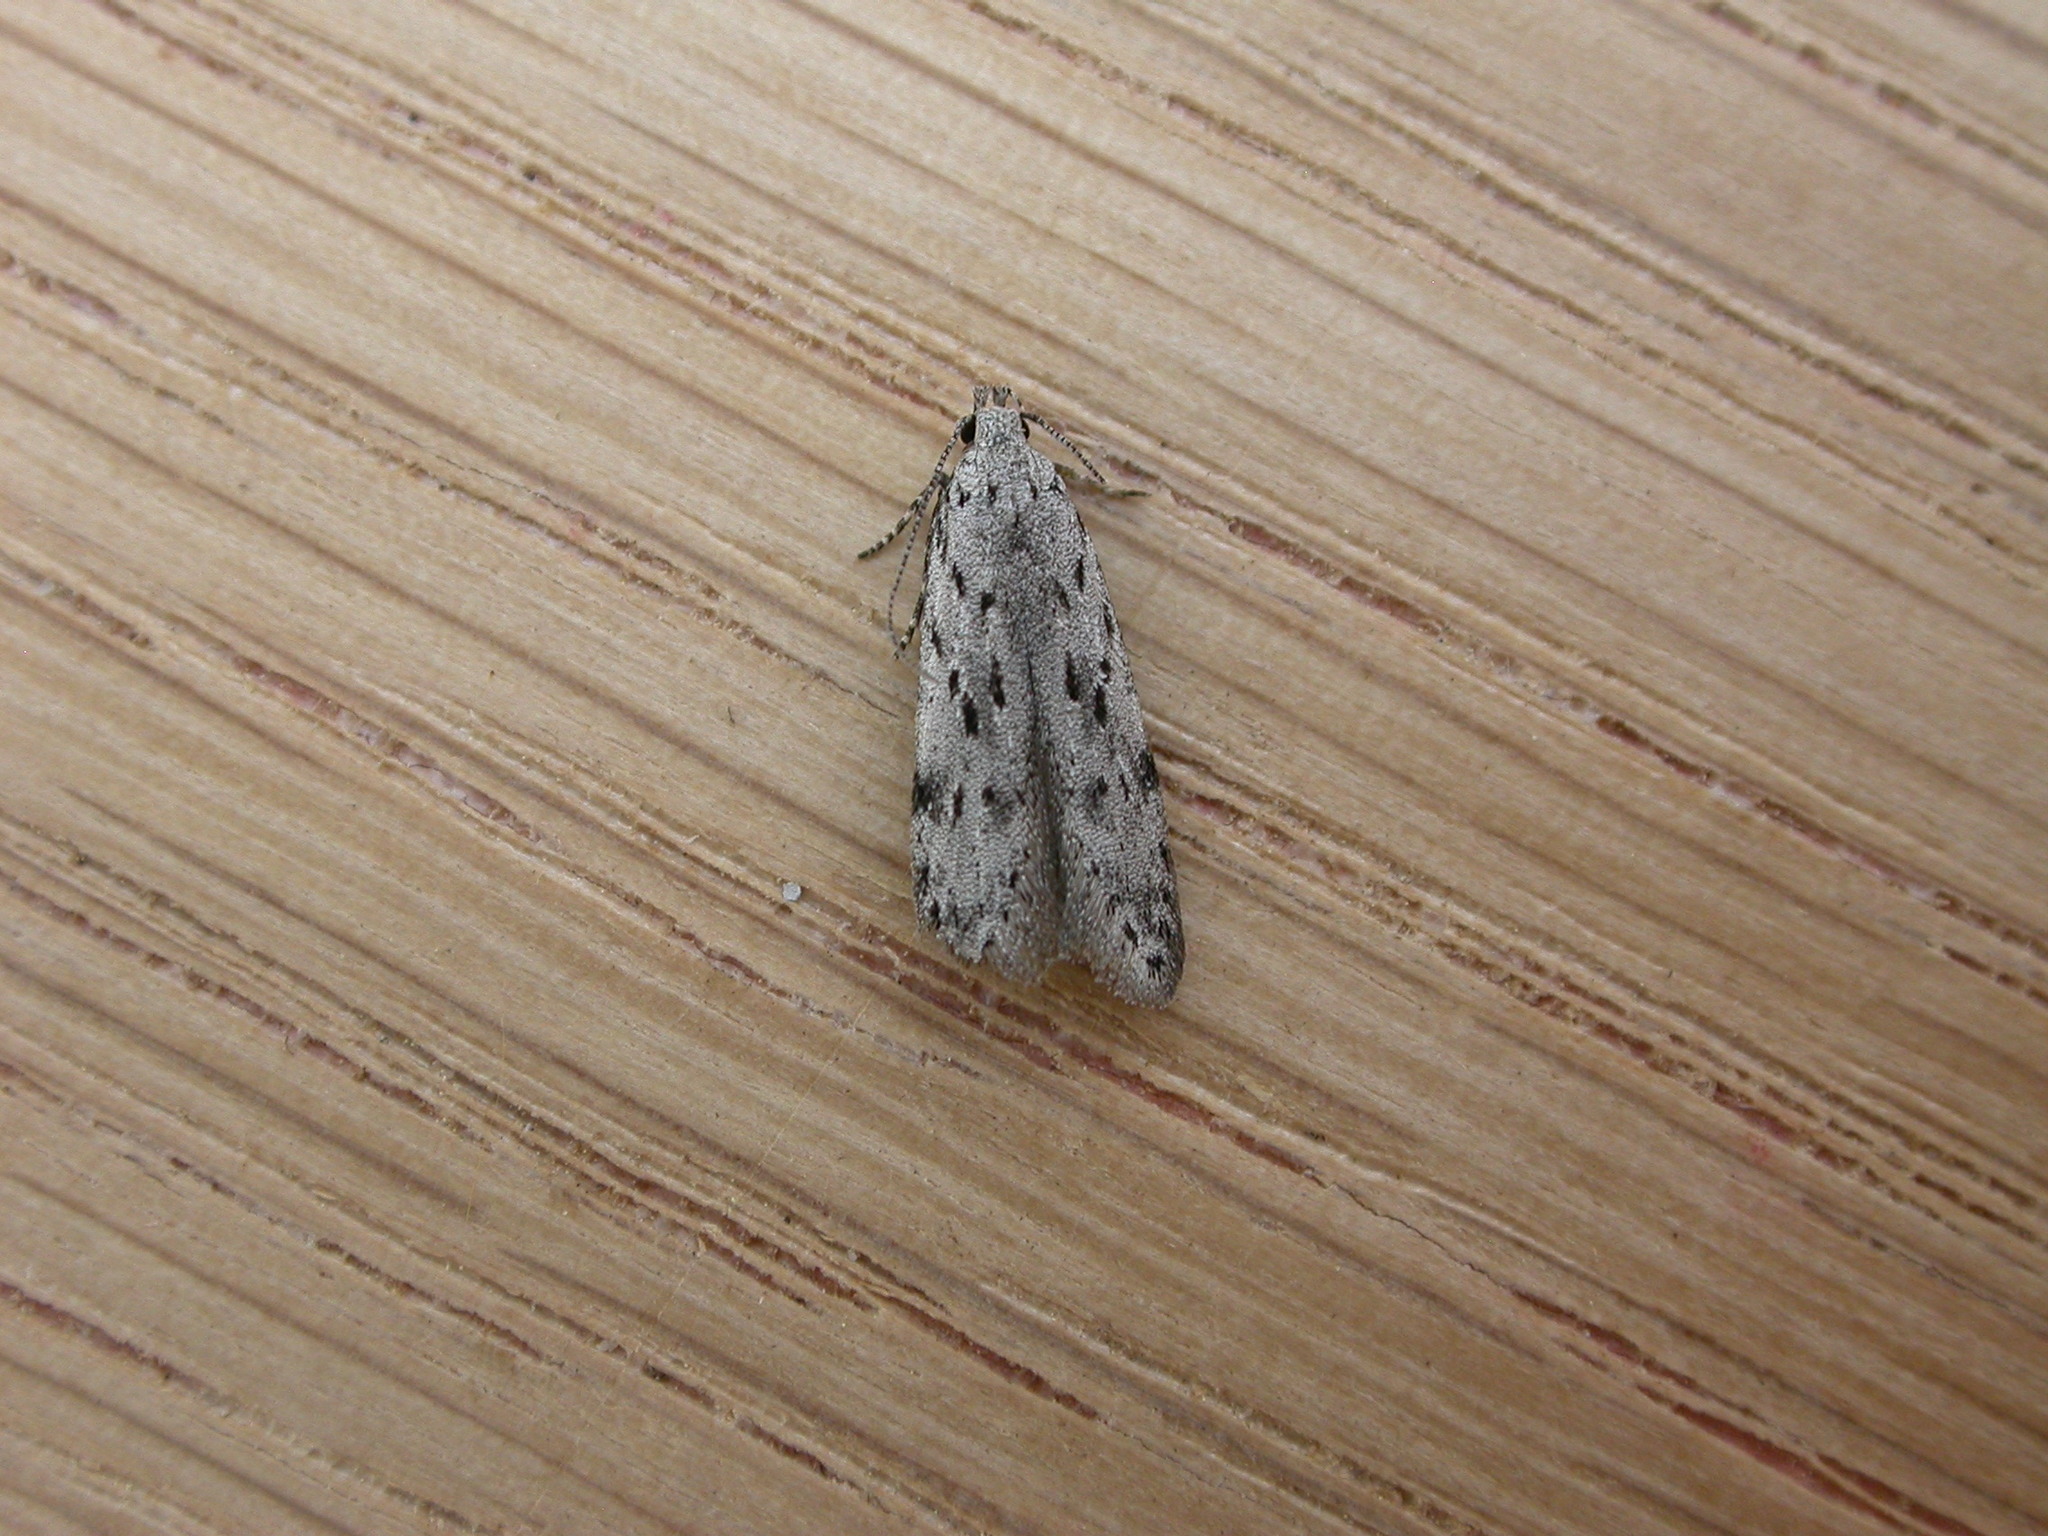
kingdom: Animalia
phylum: Arthropoda
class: Insecta
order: Lepidoptera
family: Gelechiidae
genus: Carpatolechia
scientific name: Carpatolechia proximella
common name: Black-speckled groundling
